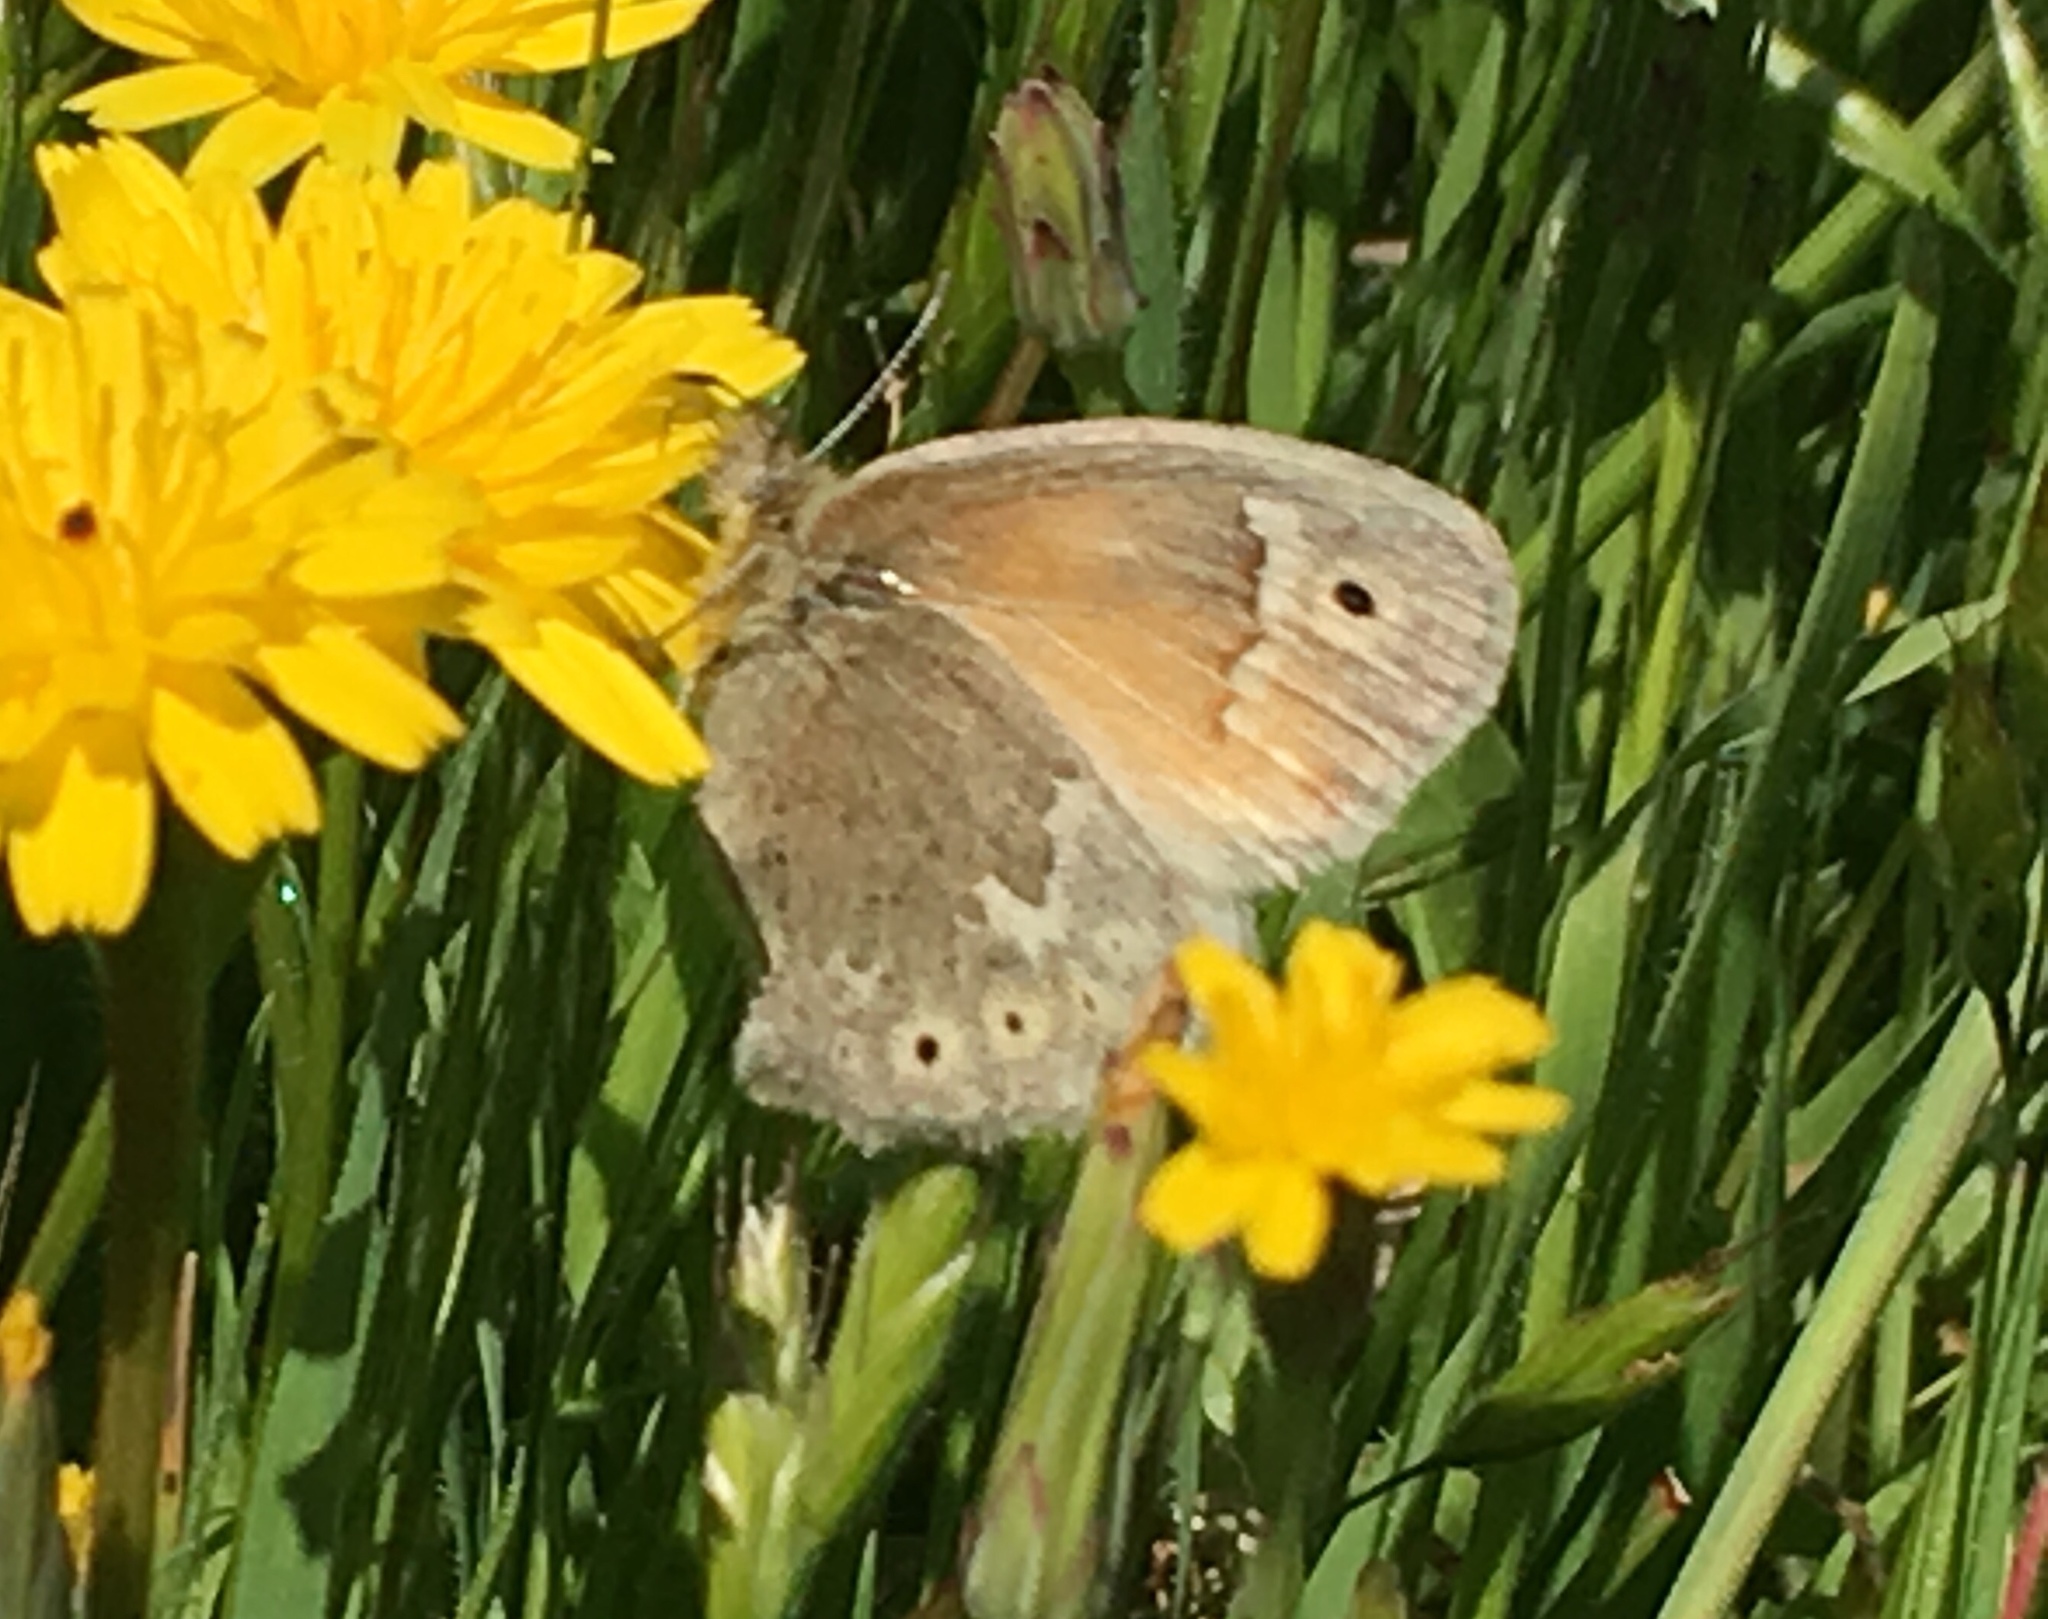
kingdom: Animalia
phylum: Arthropoda
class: Insecta
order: Lepidoptera
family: Nymphalidae
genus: Coenonympha
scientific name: Coenonympha california
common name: Common ringlet
